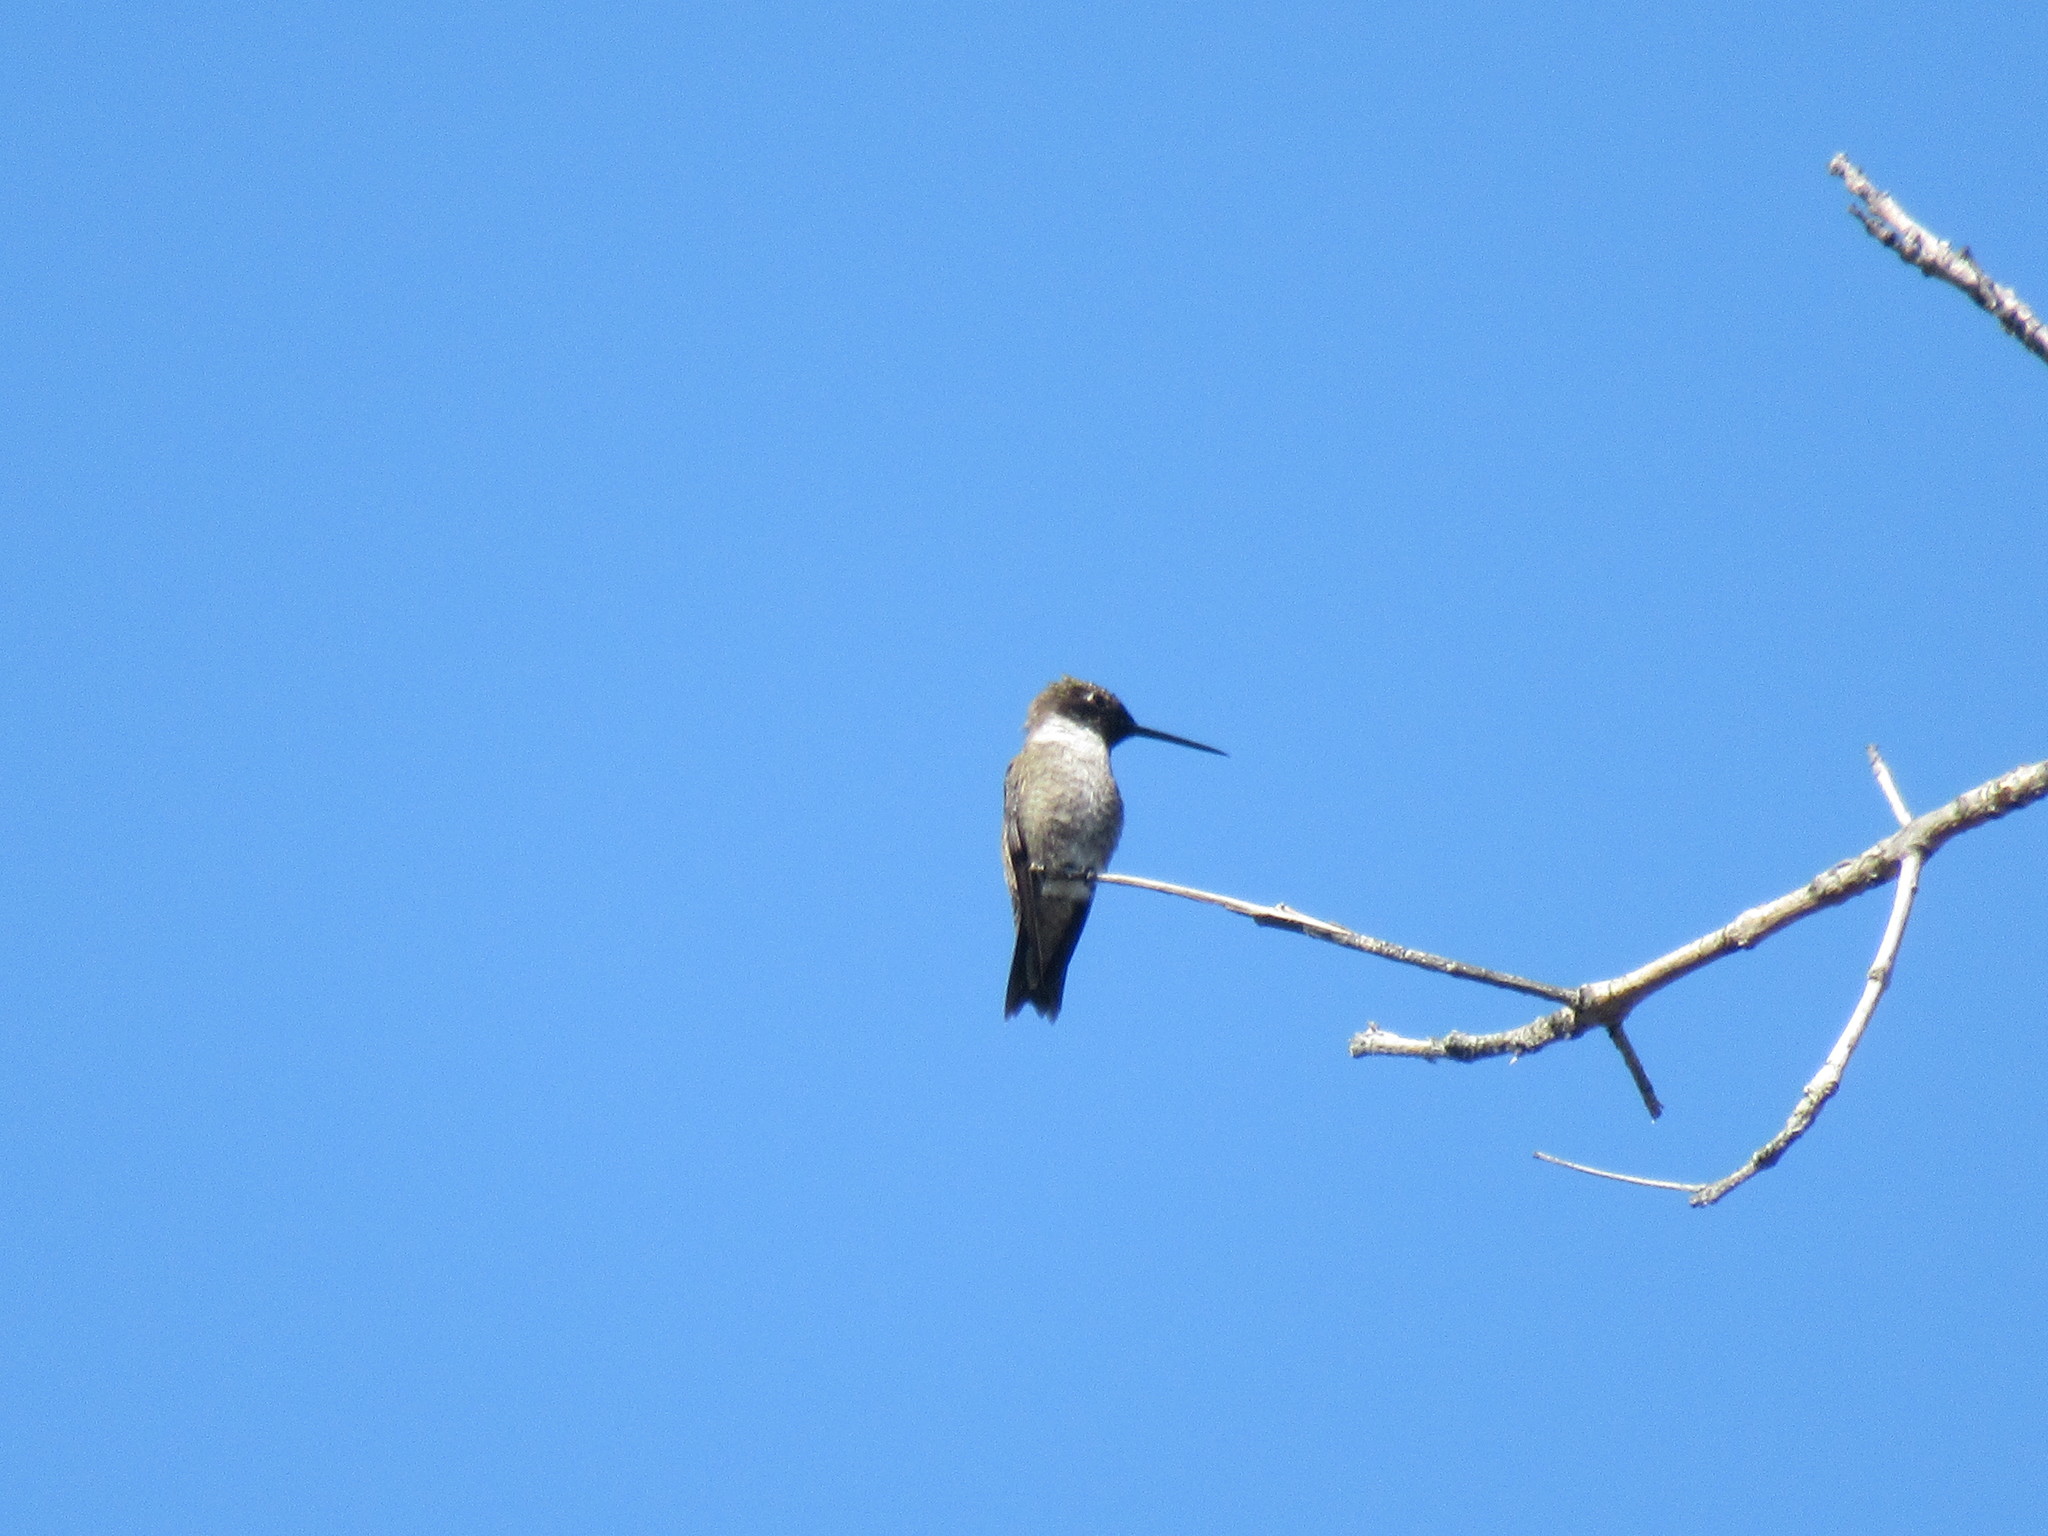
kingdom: Animalia
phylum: Chordata
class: Aves
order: Apodiformes
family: Trochilidae
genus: Archilochus
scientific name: Archilochus alexandri
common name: Black-chinned hummingbird
